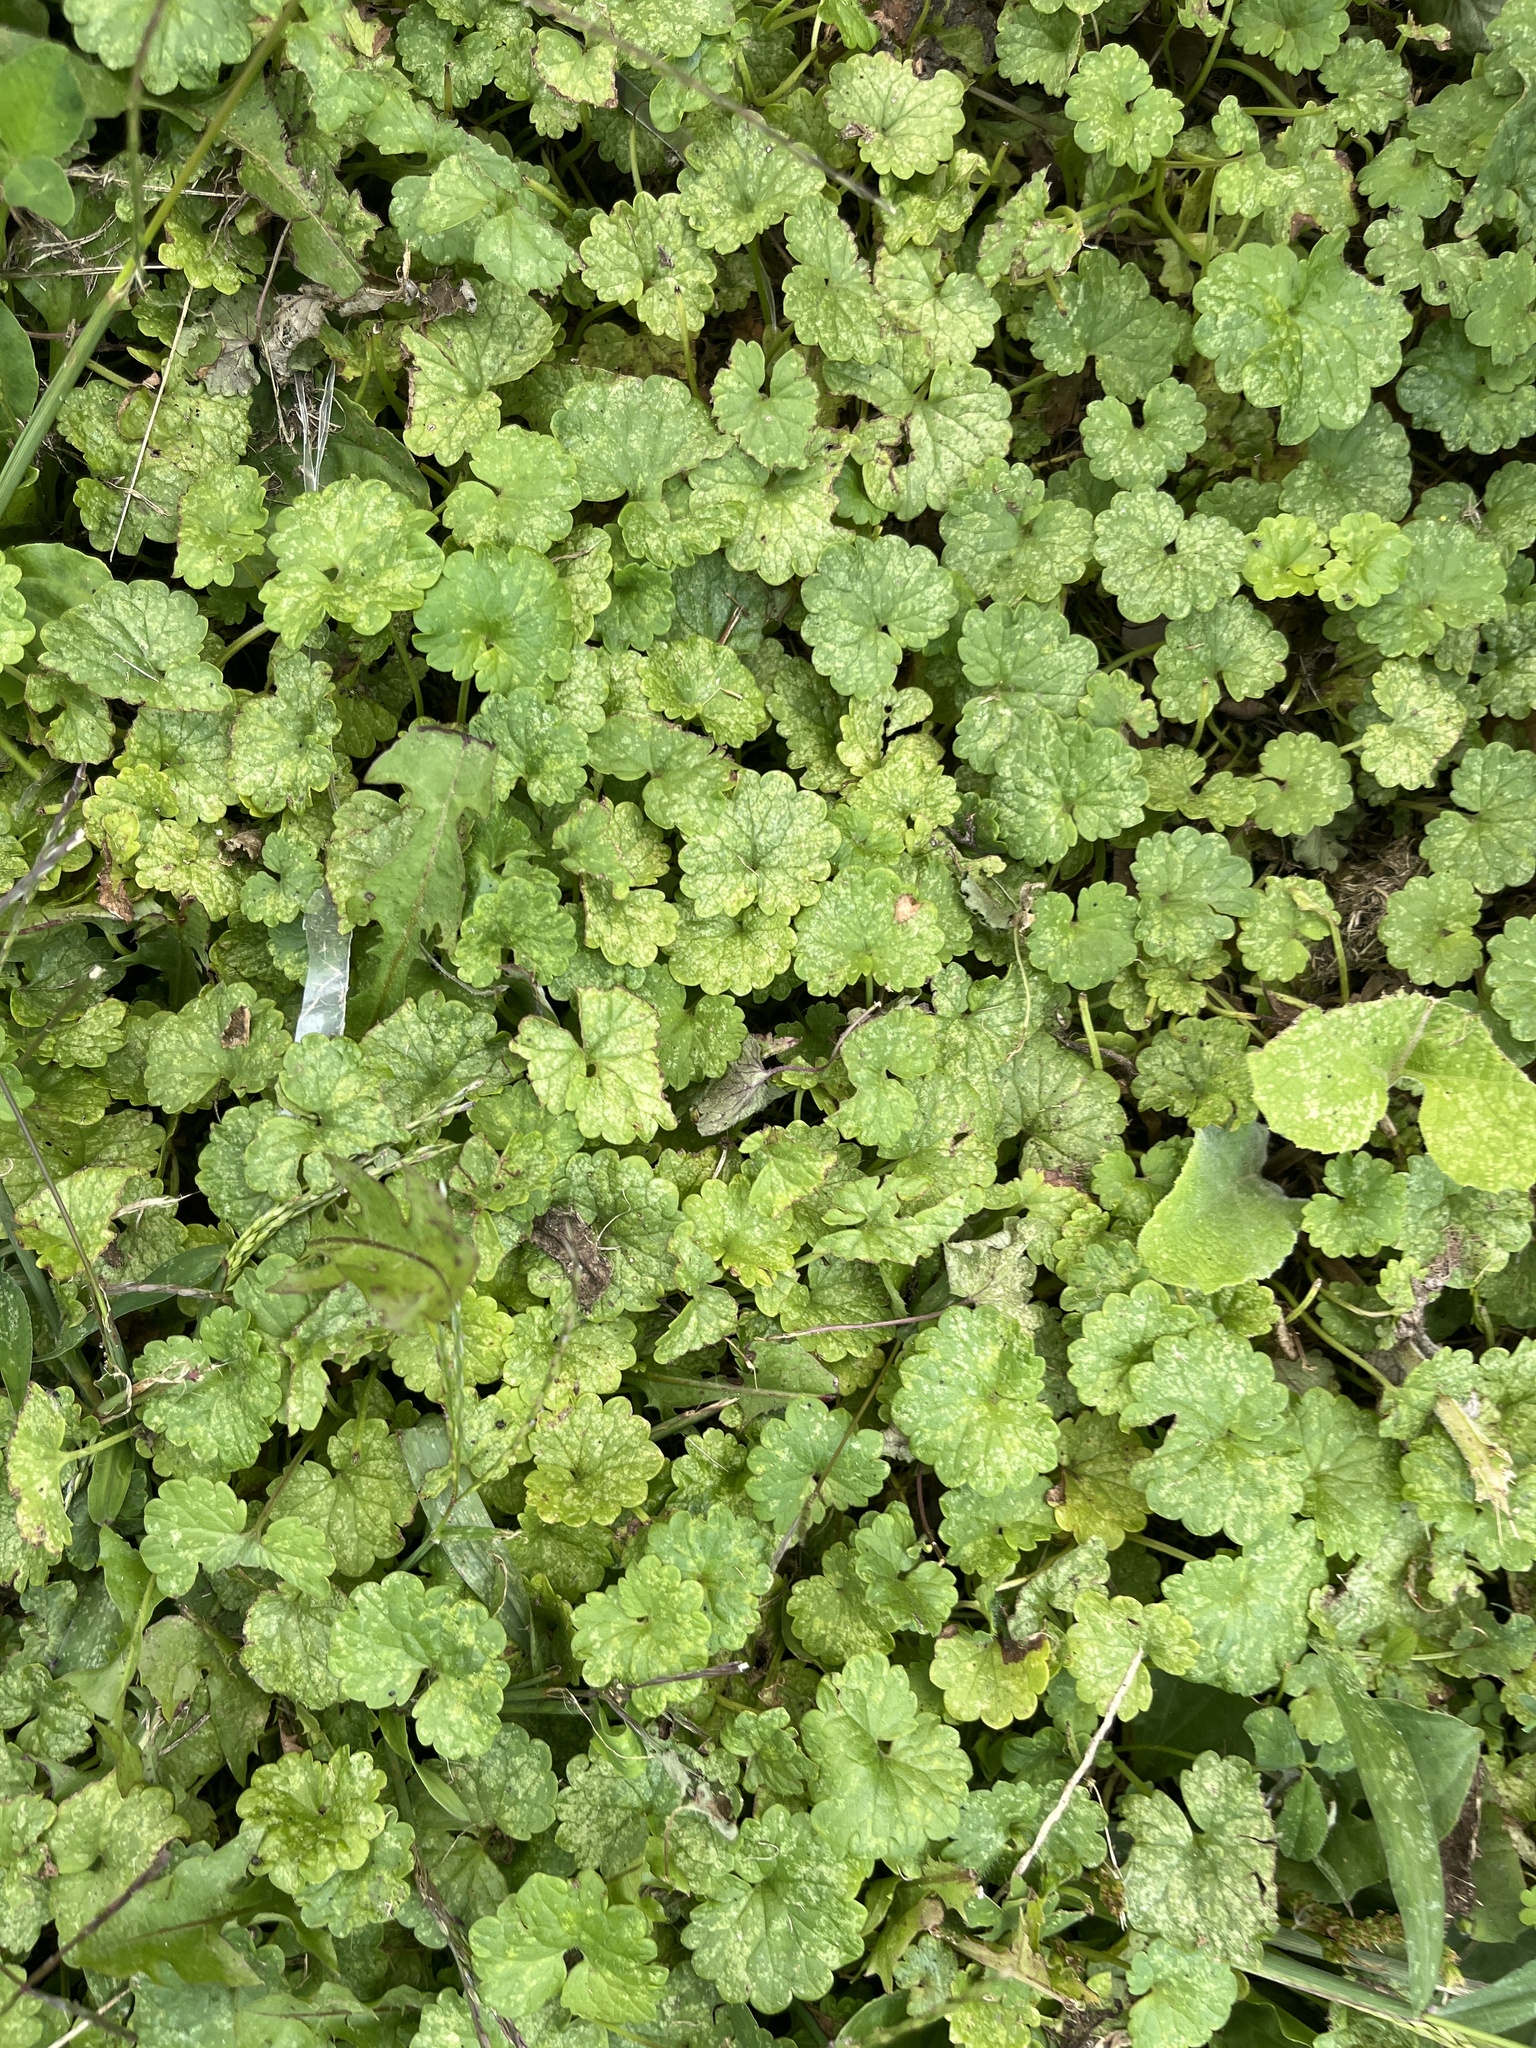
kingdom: Plantae
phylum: Tracheophyta
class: Magnoliopsida
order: Lamiales
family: Lamiaceae
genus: Glechoma
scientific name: Glechoma hederacea
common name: Ground ivy
